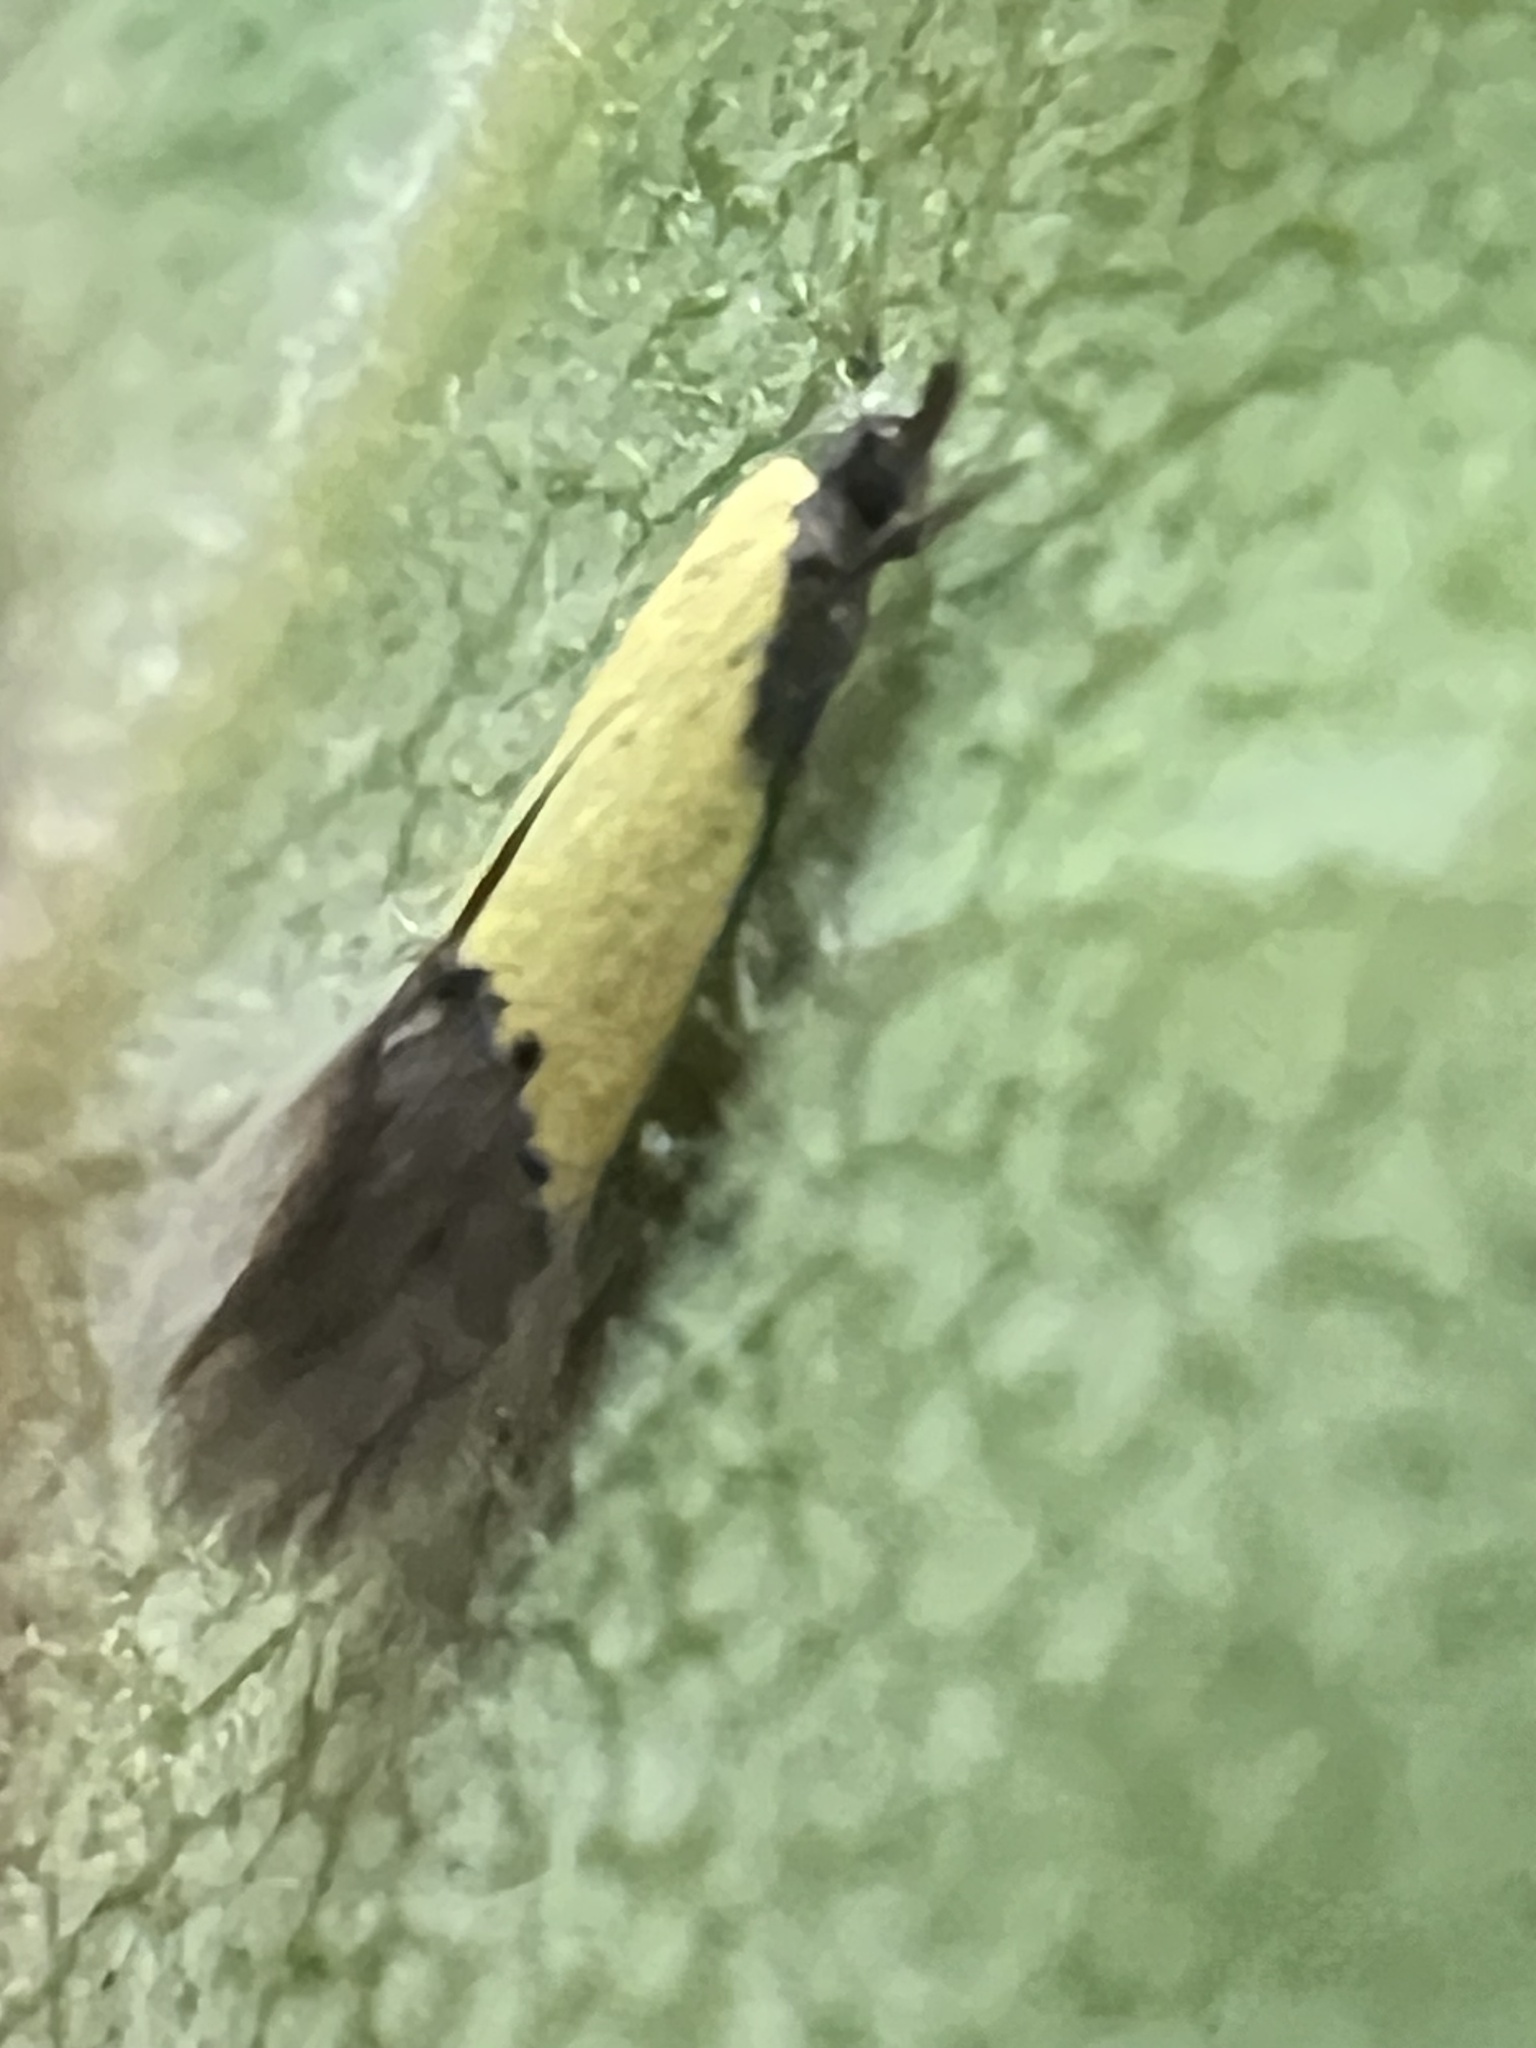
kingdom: Animalia
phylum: Arthropoda
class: Insecta
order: Lepidoptera
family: Tineidae
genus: Opogona
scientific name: Opogona protodoxa
